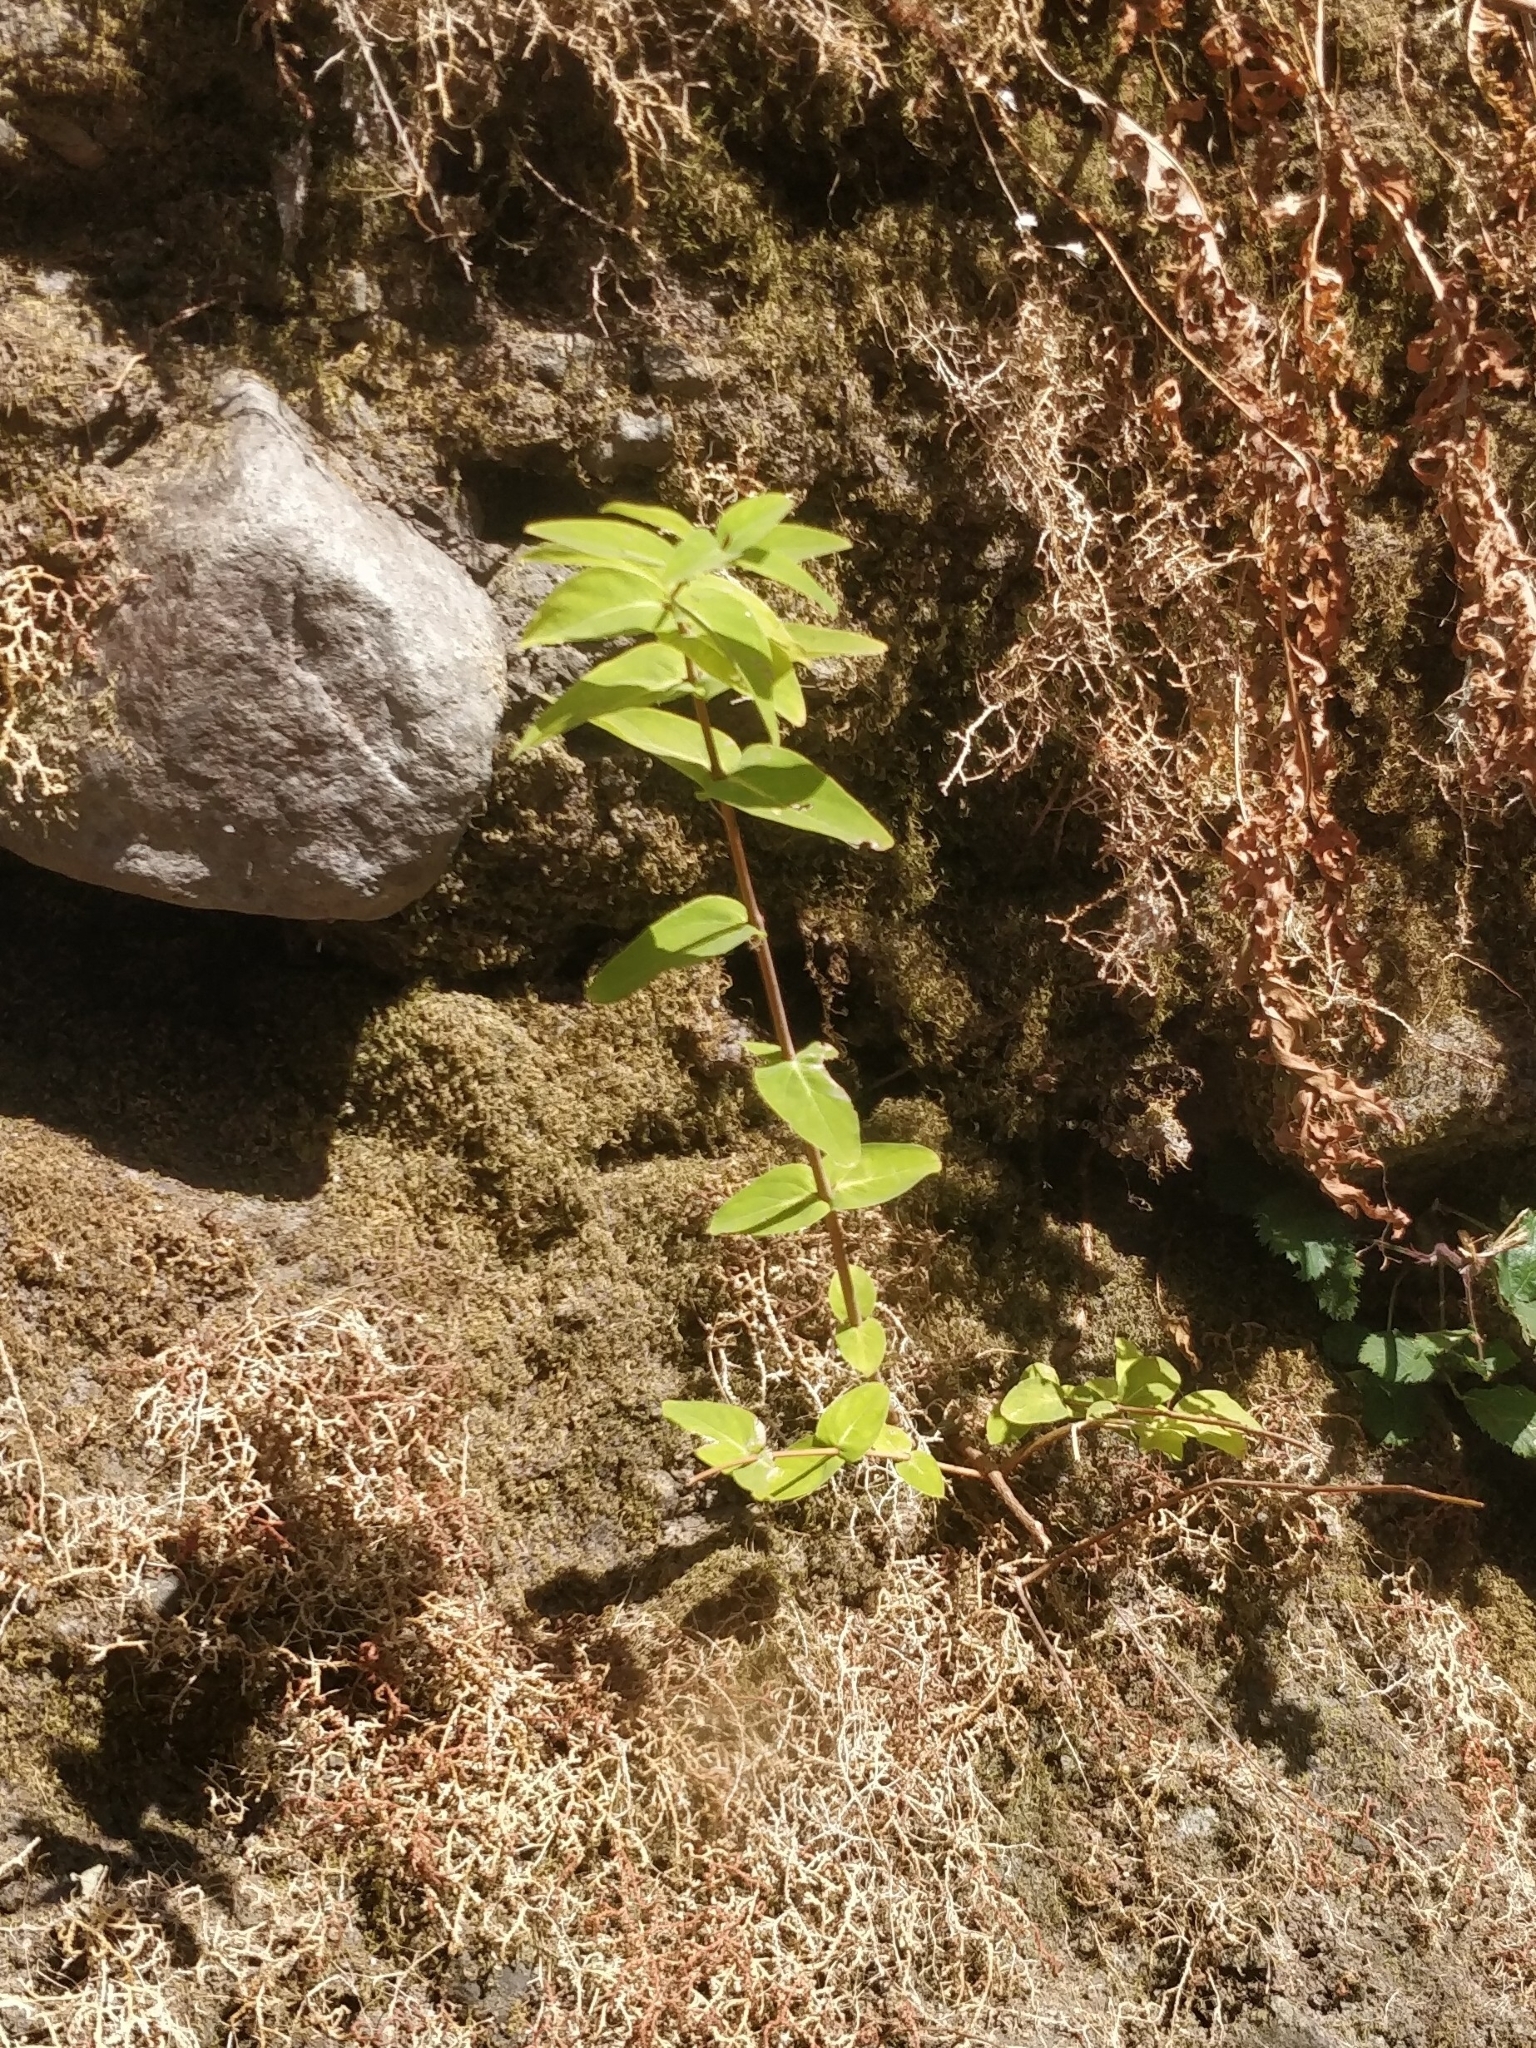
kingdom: Plantae
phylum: Tracheophyta
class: Magnoliopsida
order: Malpighiales
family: Hypericaceae
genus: Hypericum
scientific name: Hypericum grandifolium
